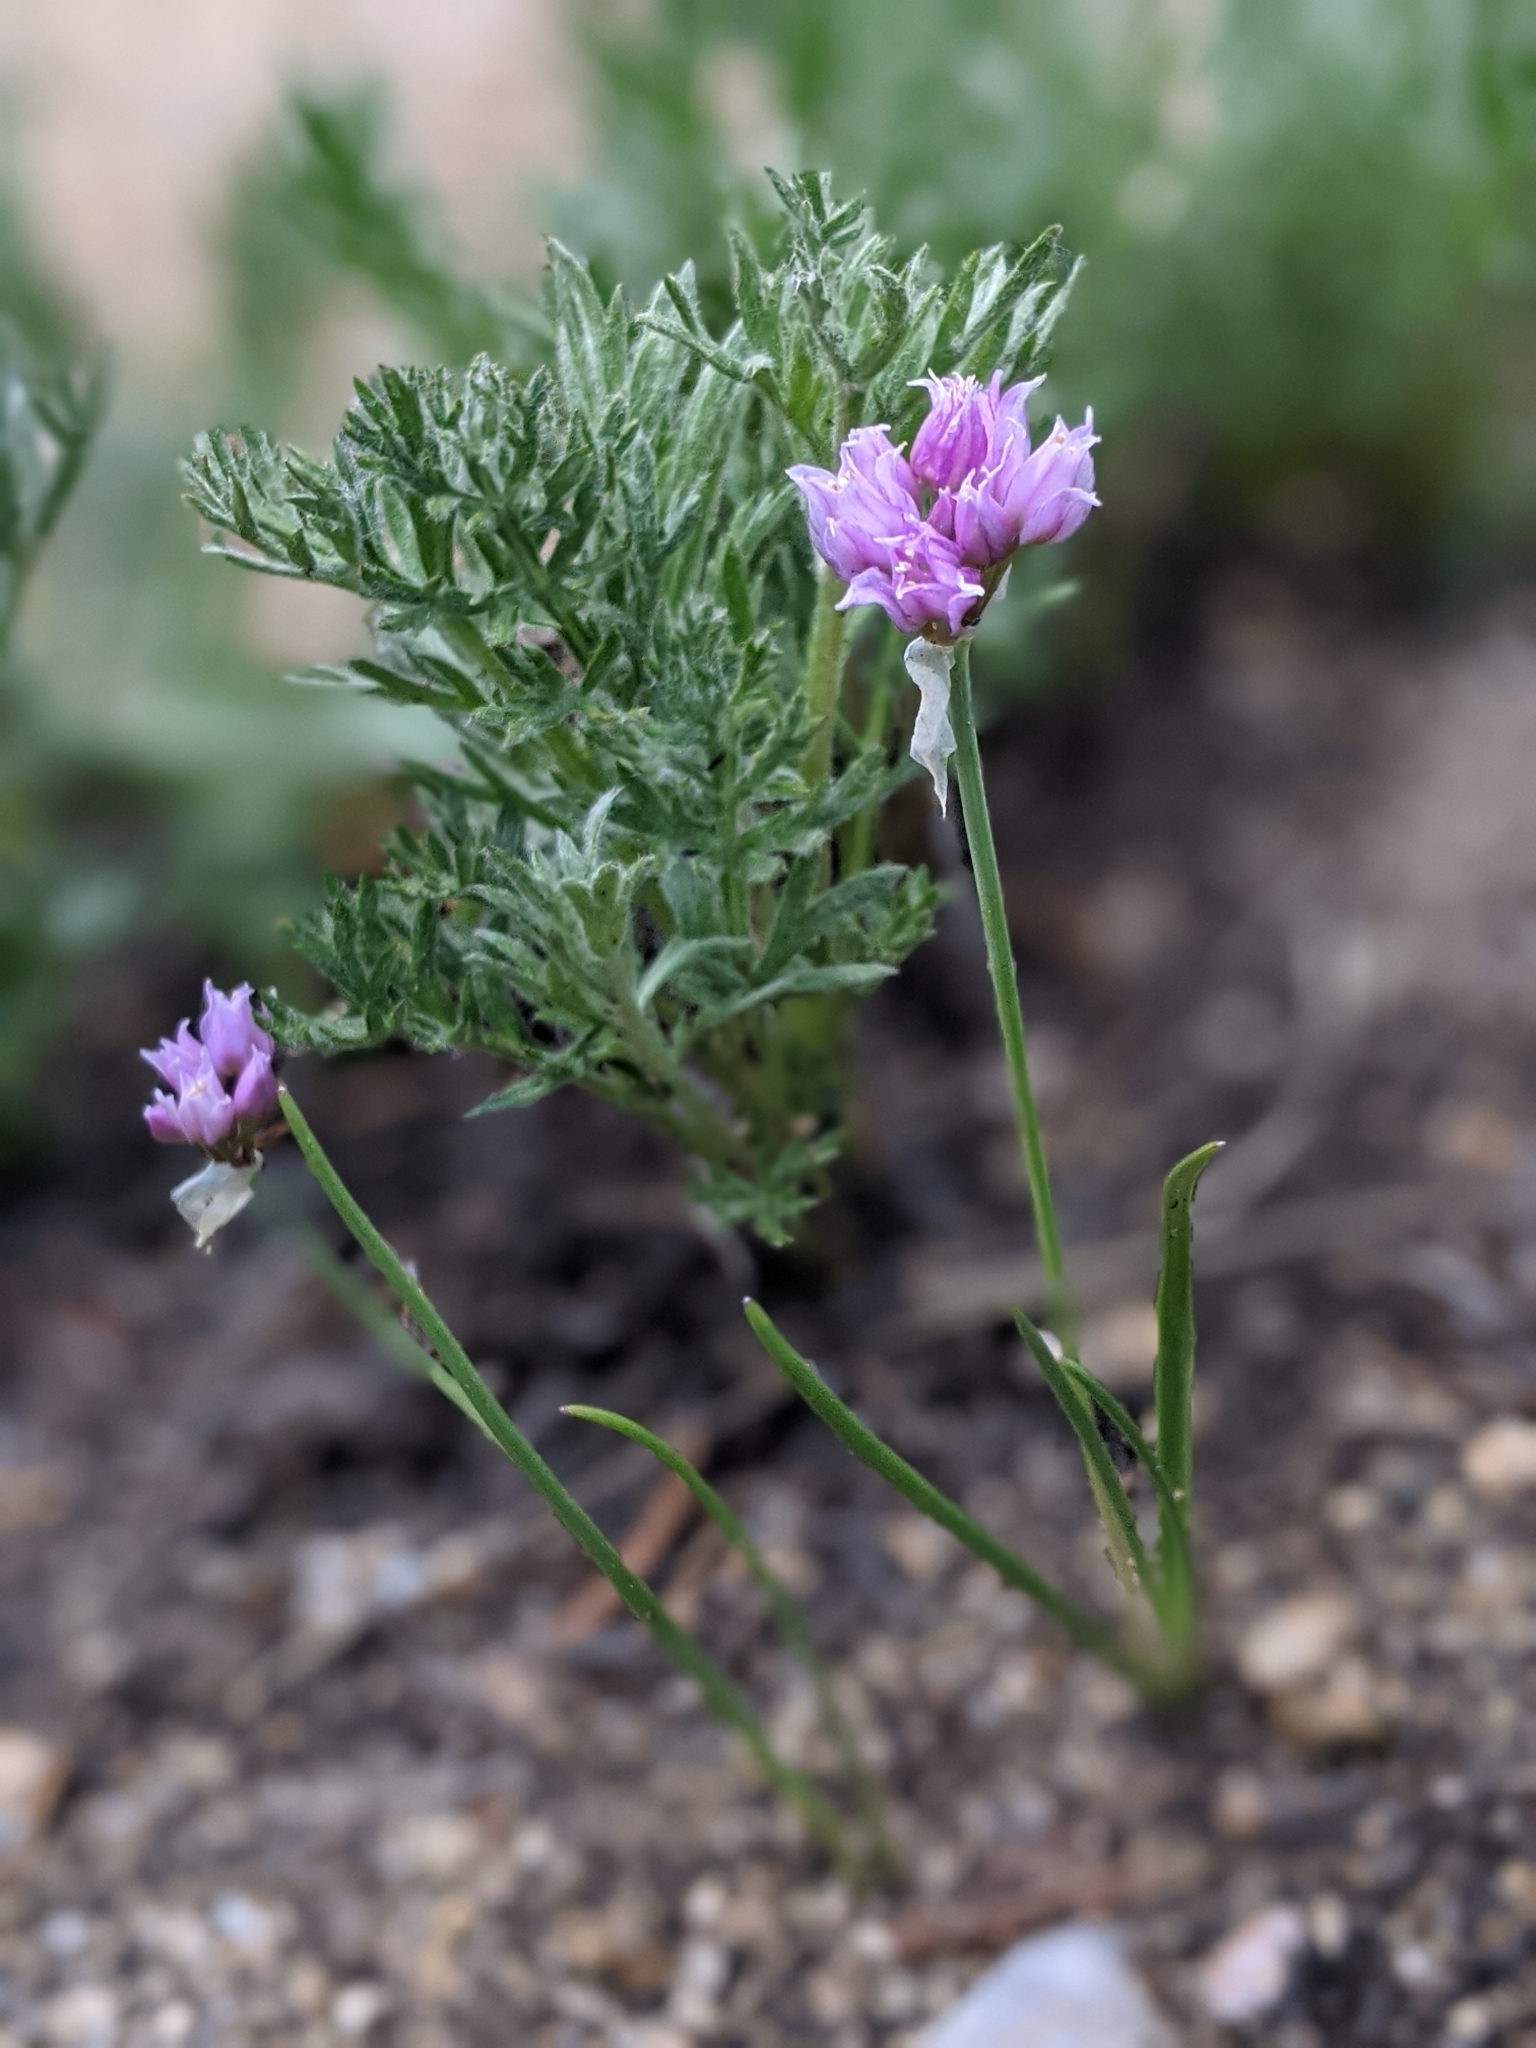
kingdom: Plantae
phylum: Tracheophyta
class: Liliopsida
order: Asparagales
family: Amaryllidaceae
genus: Allium
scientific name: Allium geyeri
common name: Geyer's onion
